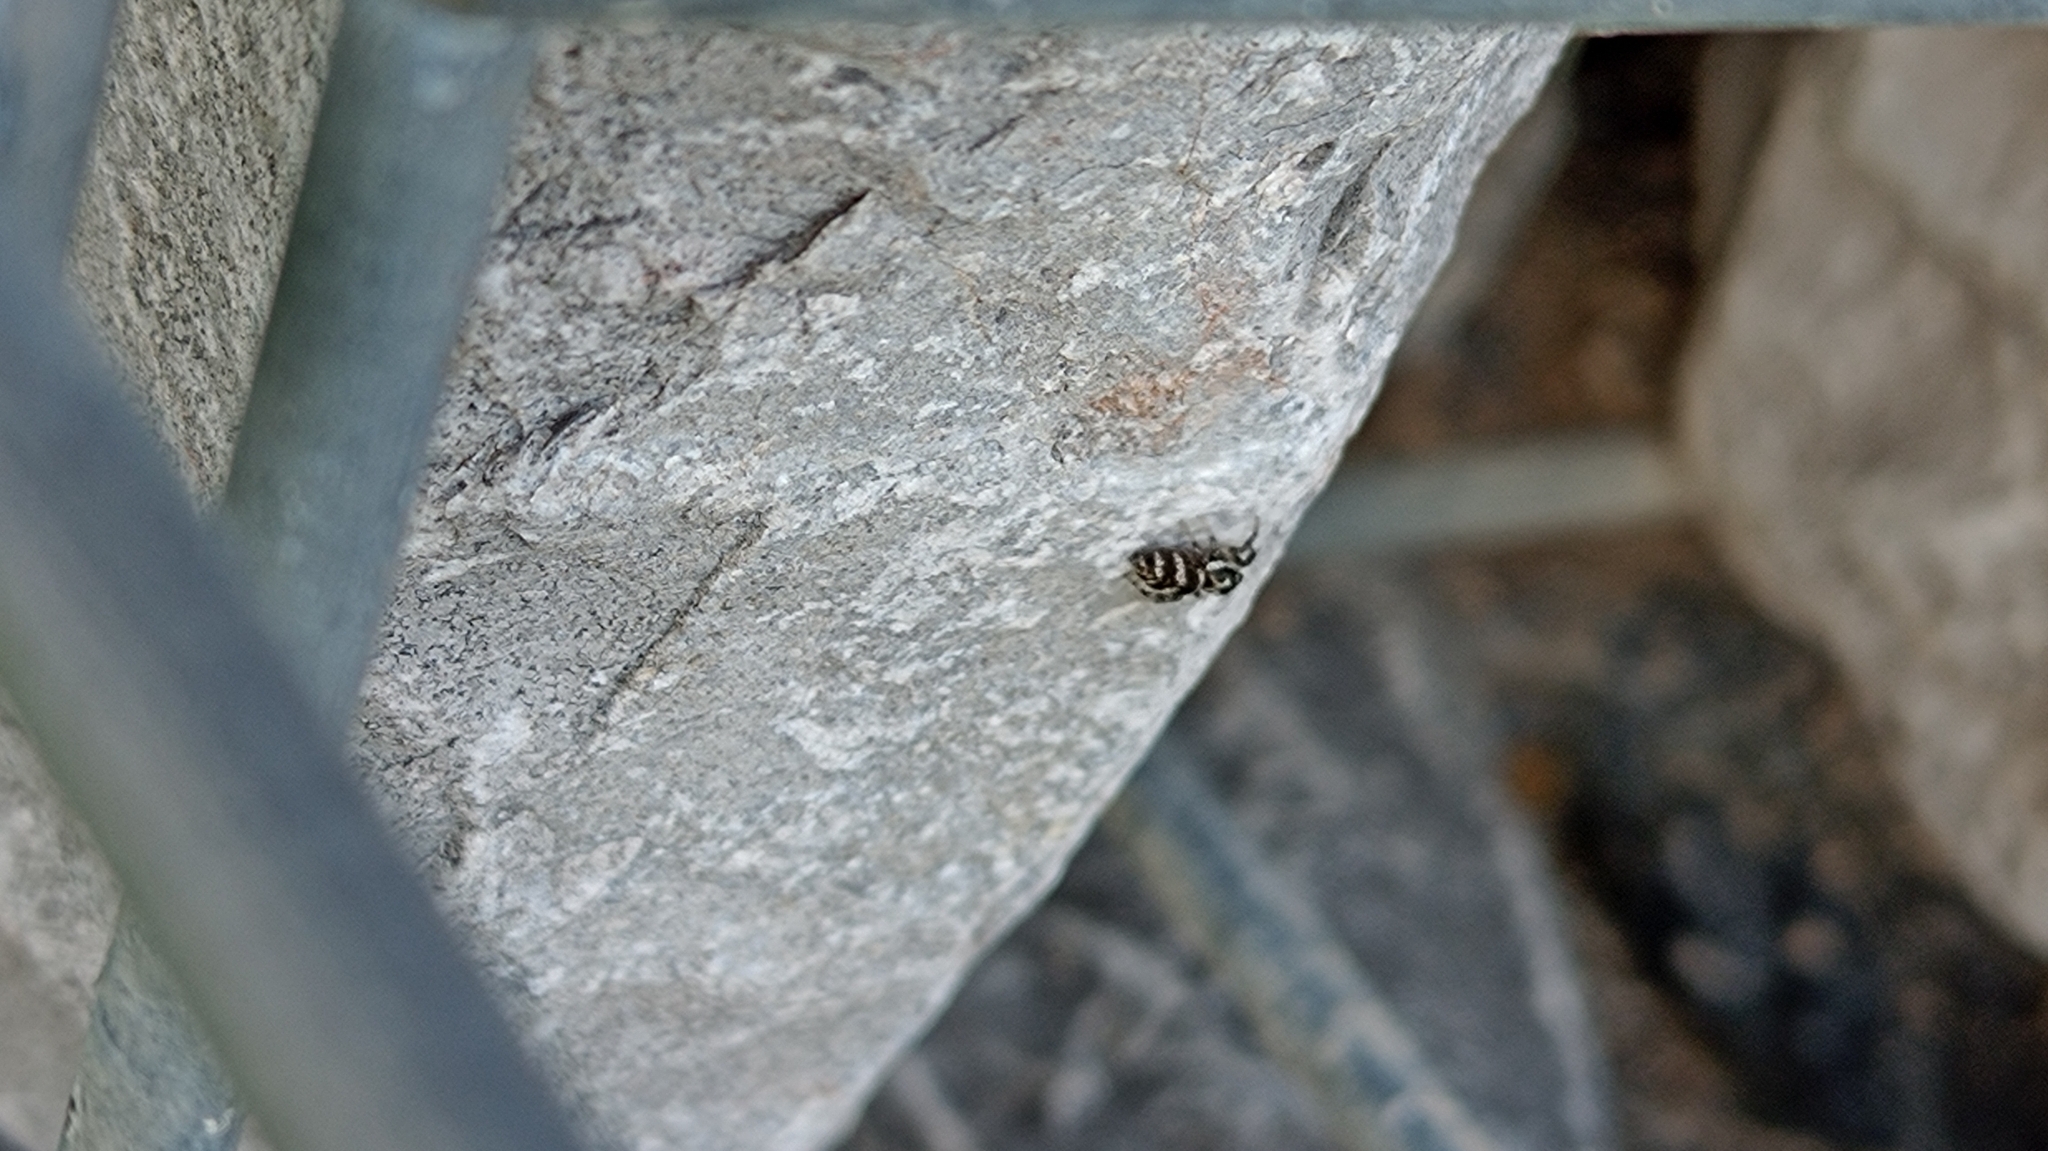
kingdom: Animalia
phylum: Arthropoda
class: Arachnida
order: Araneae
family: Salticidae
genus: Salticus
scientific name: Salticus scenicus
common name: Zebra jumper
